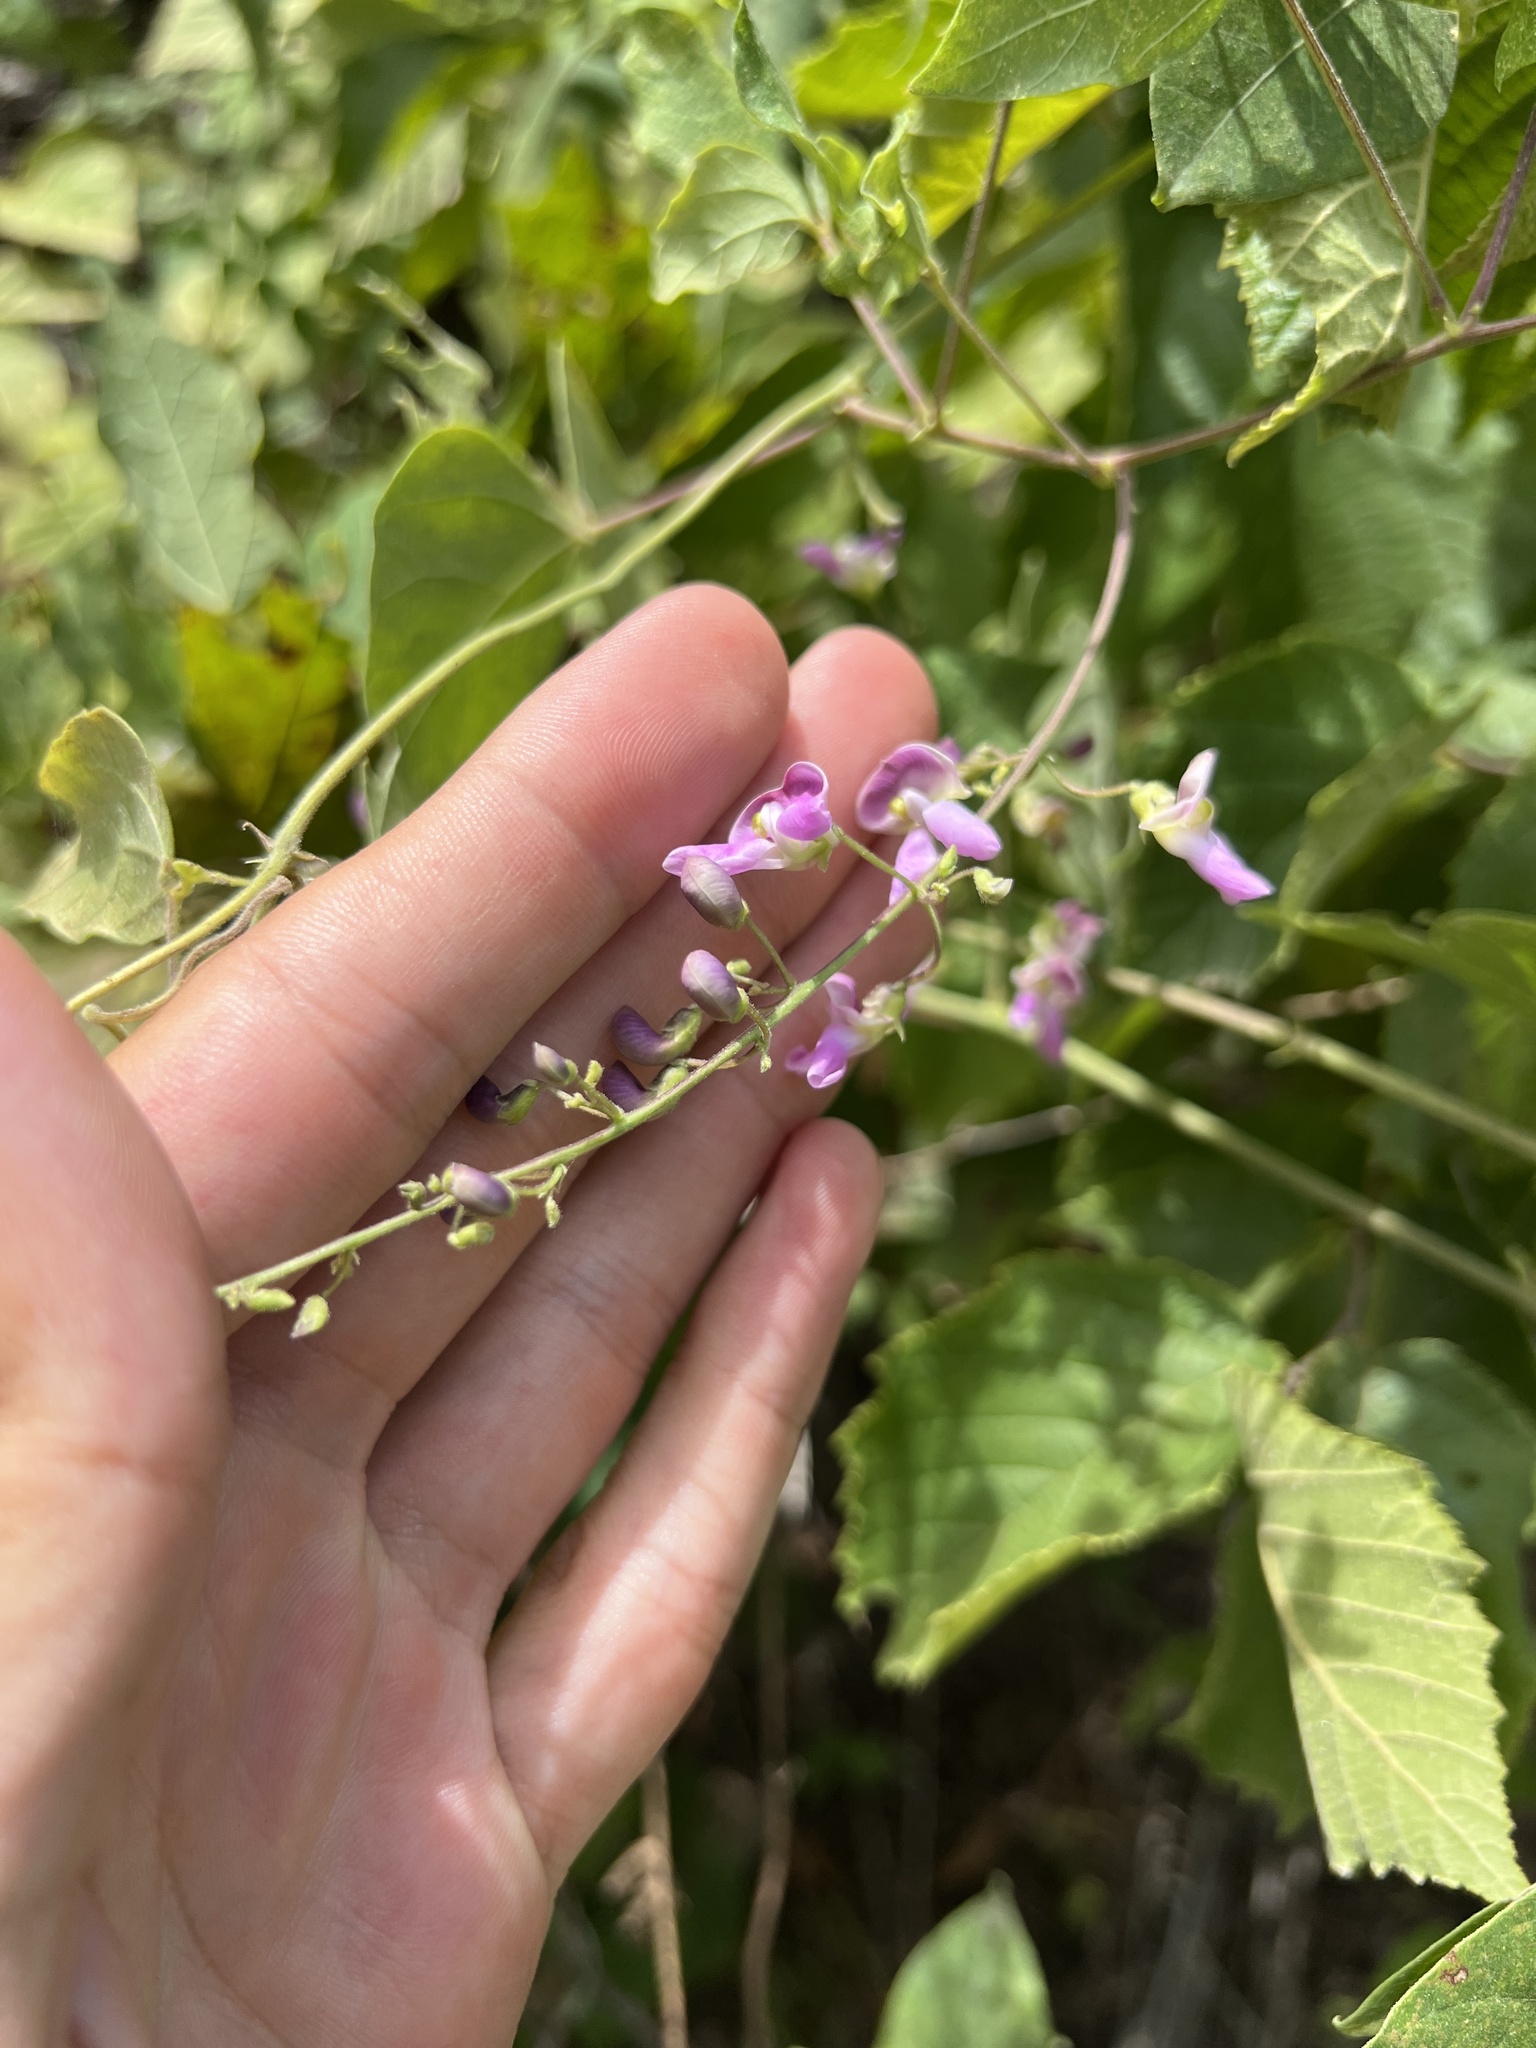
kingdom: Plantae
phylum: Tracheophyta
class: Magnoliopsida
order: Fabales
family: Fabaceae
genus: Phaseolus
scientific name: Phaseolus polystachios
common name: Thicket bean
